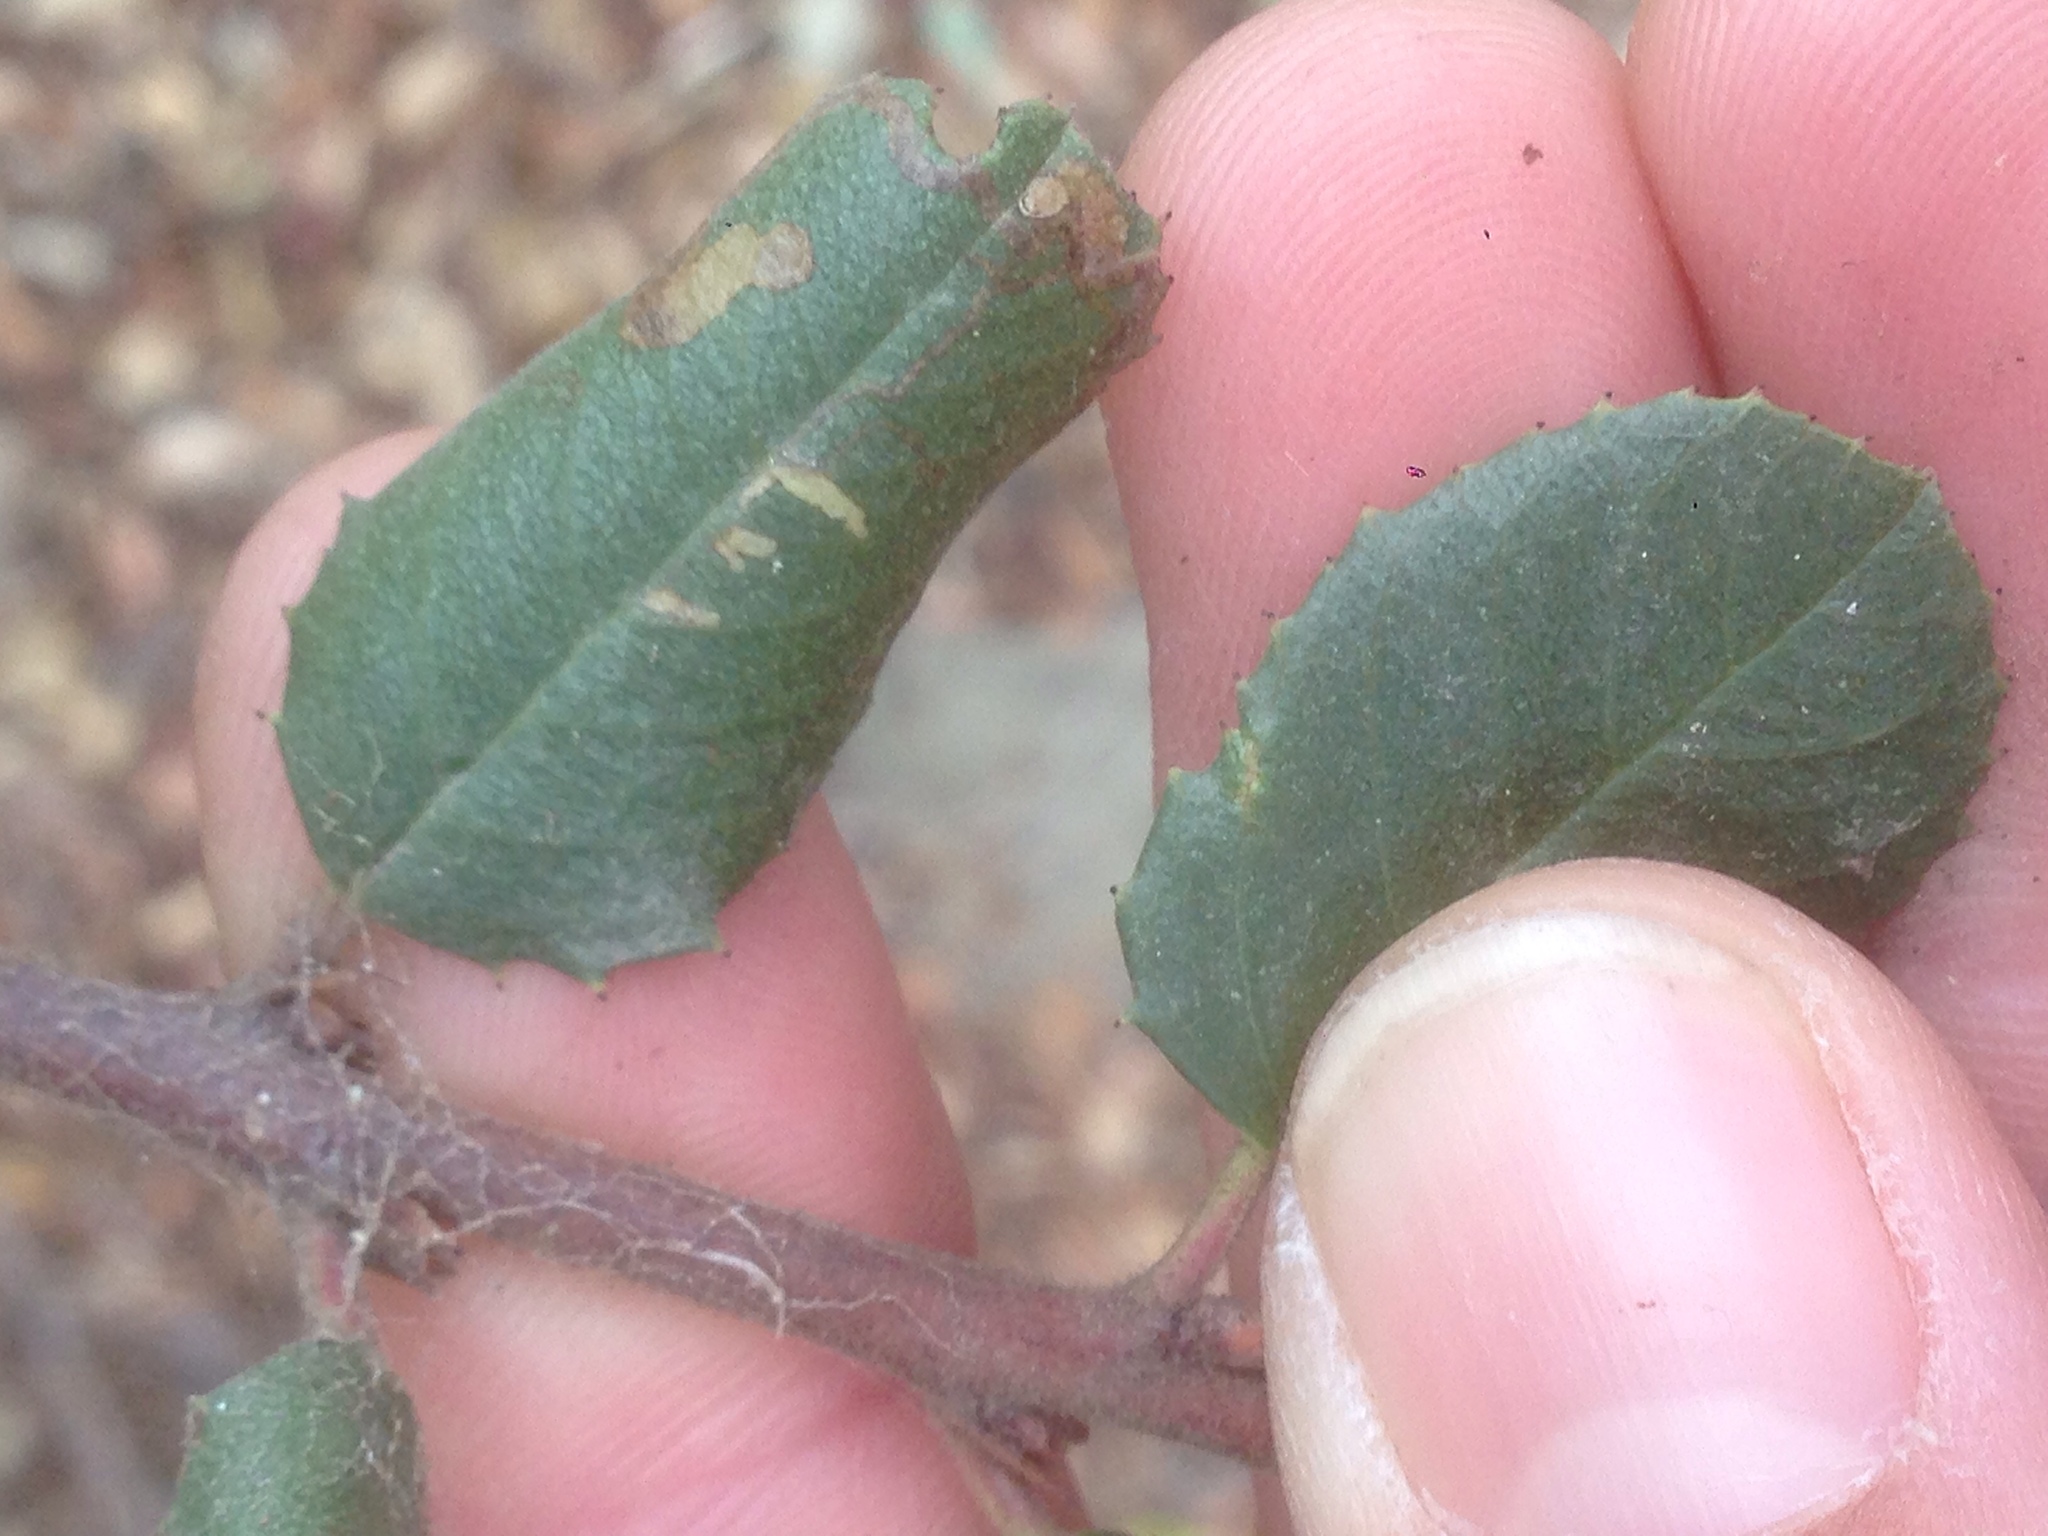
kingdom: Plantae
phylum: Tracheophyta
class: Magnoliopsida
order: Rosales
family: Rhamnaceae
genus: Endotropis
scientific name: Endotropis crocea
